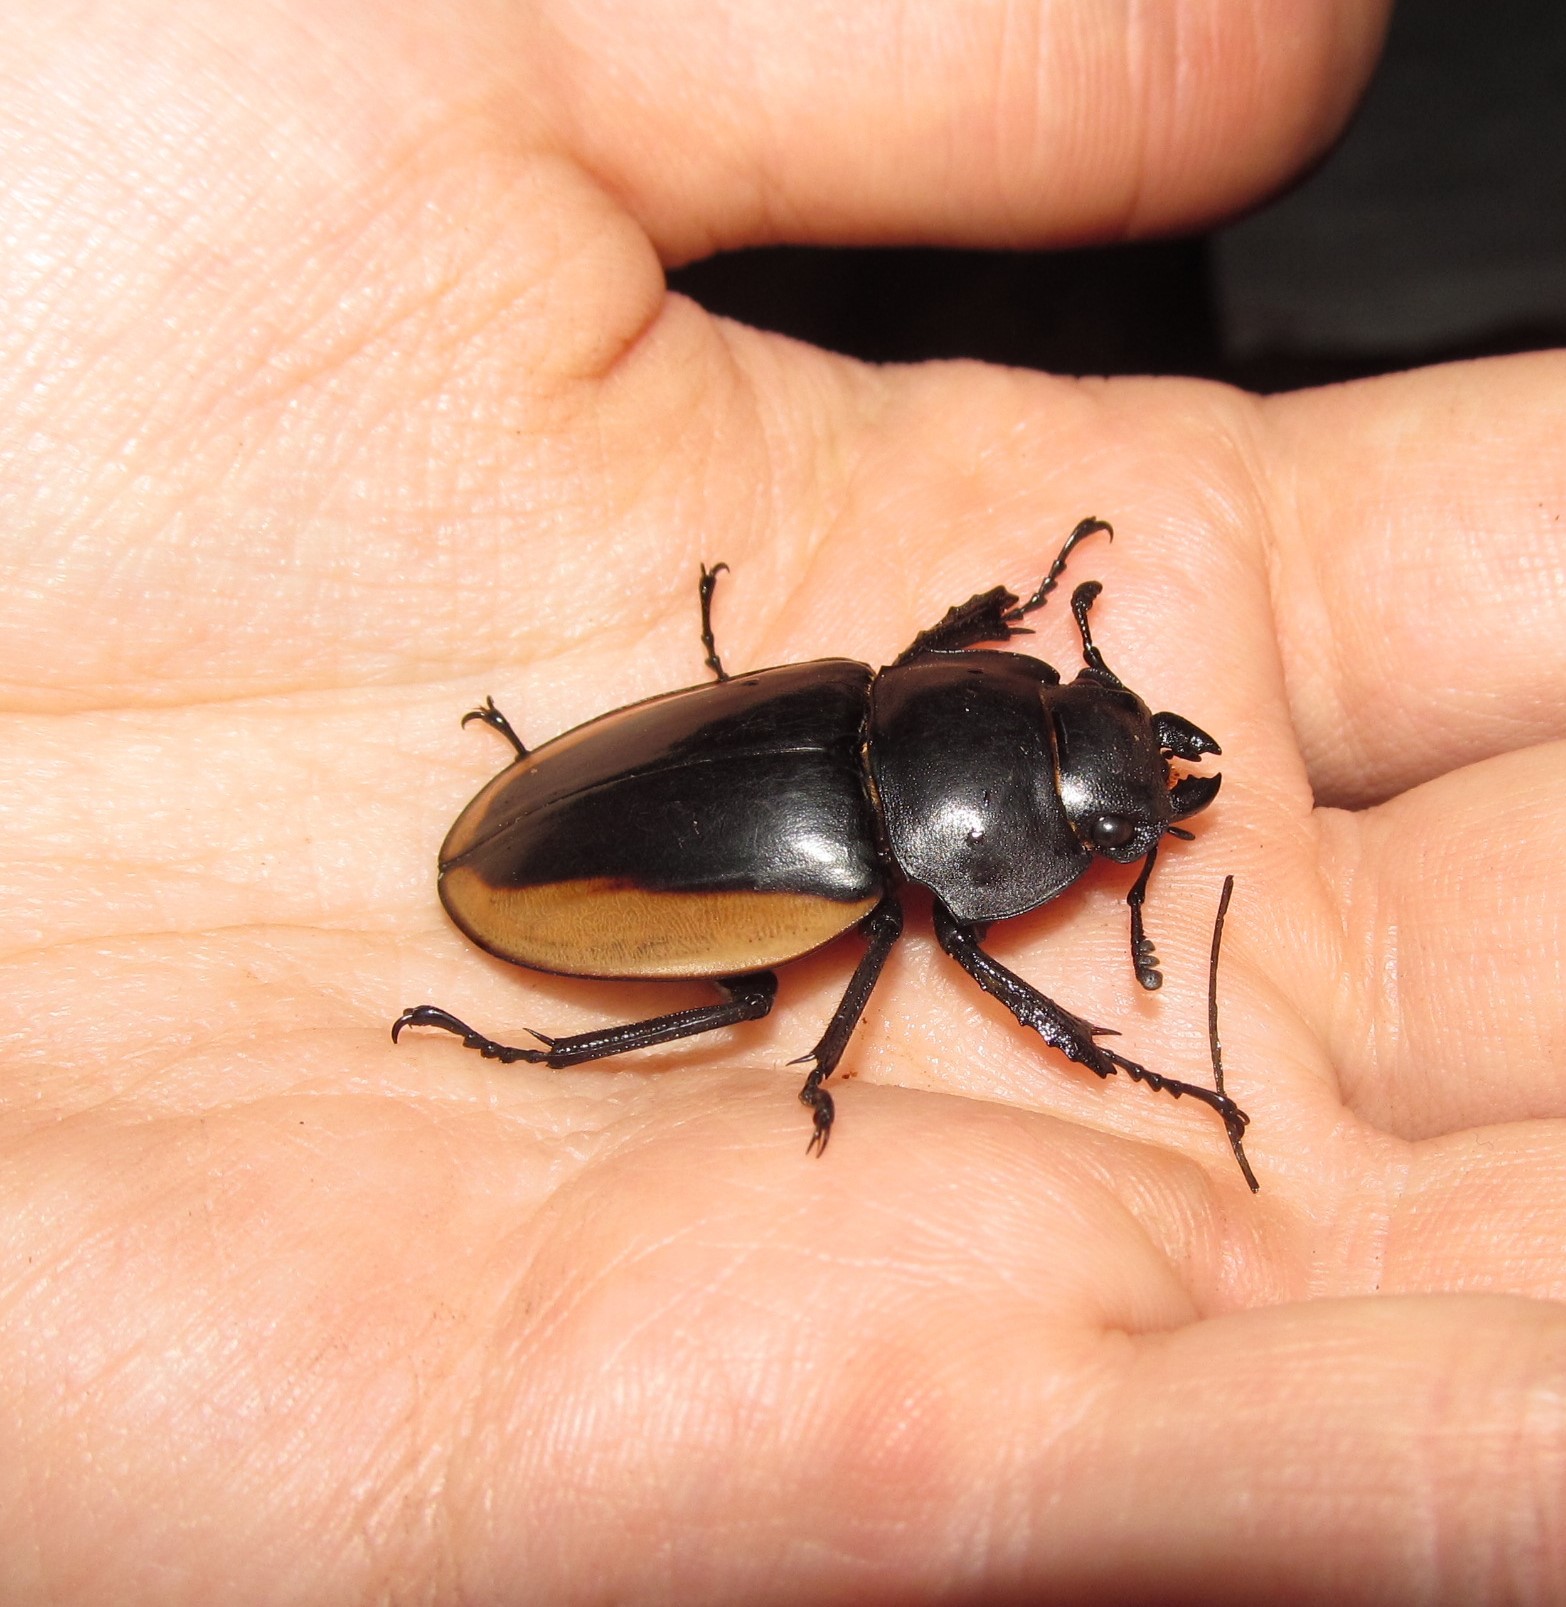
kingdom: Animalia
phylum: Arthropoda
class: Insecta
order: Coleoptera
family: Lucanidae
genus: Odontolabis
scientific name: Odontolabis cuvera
